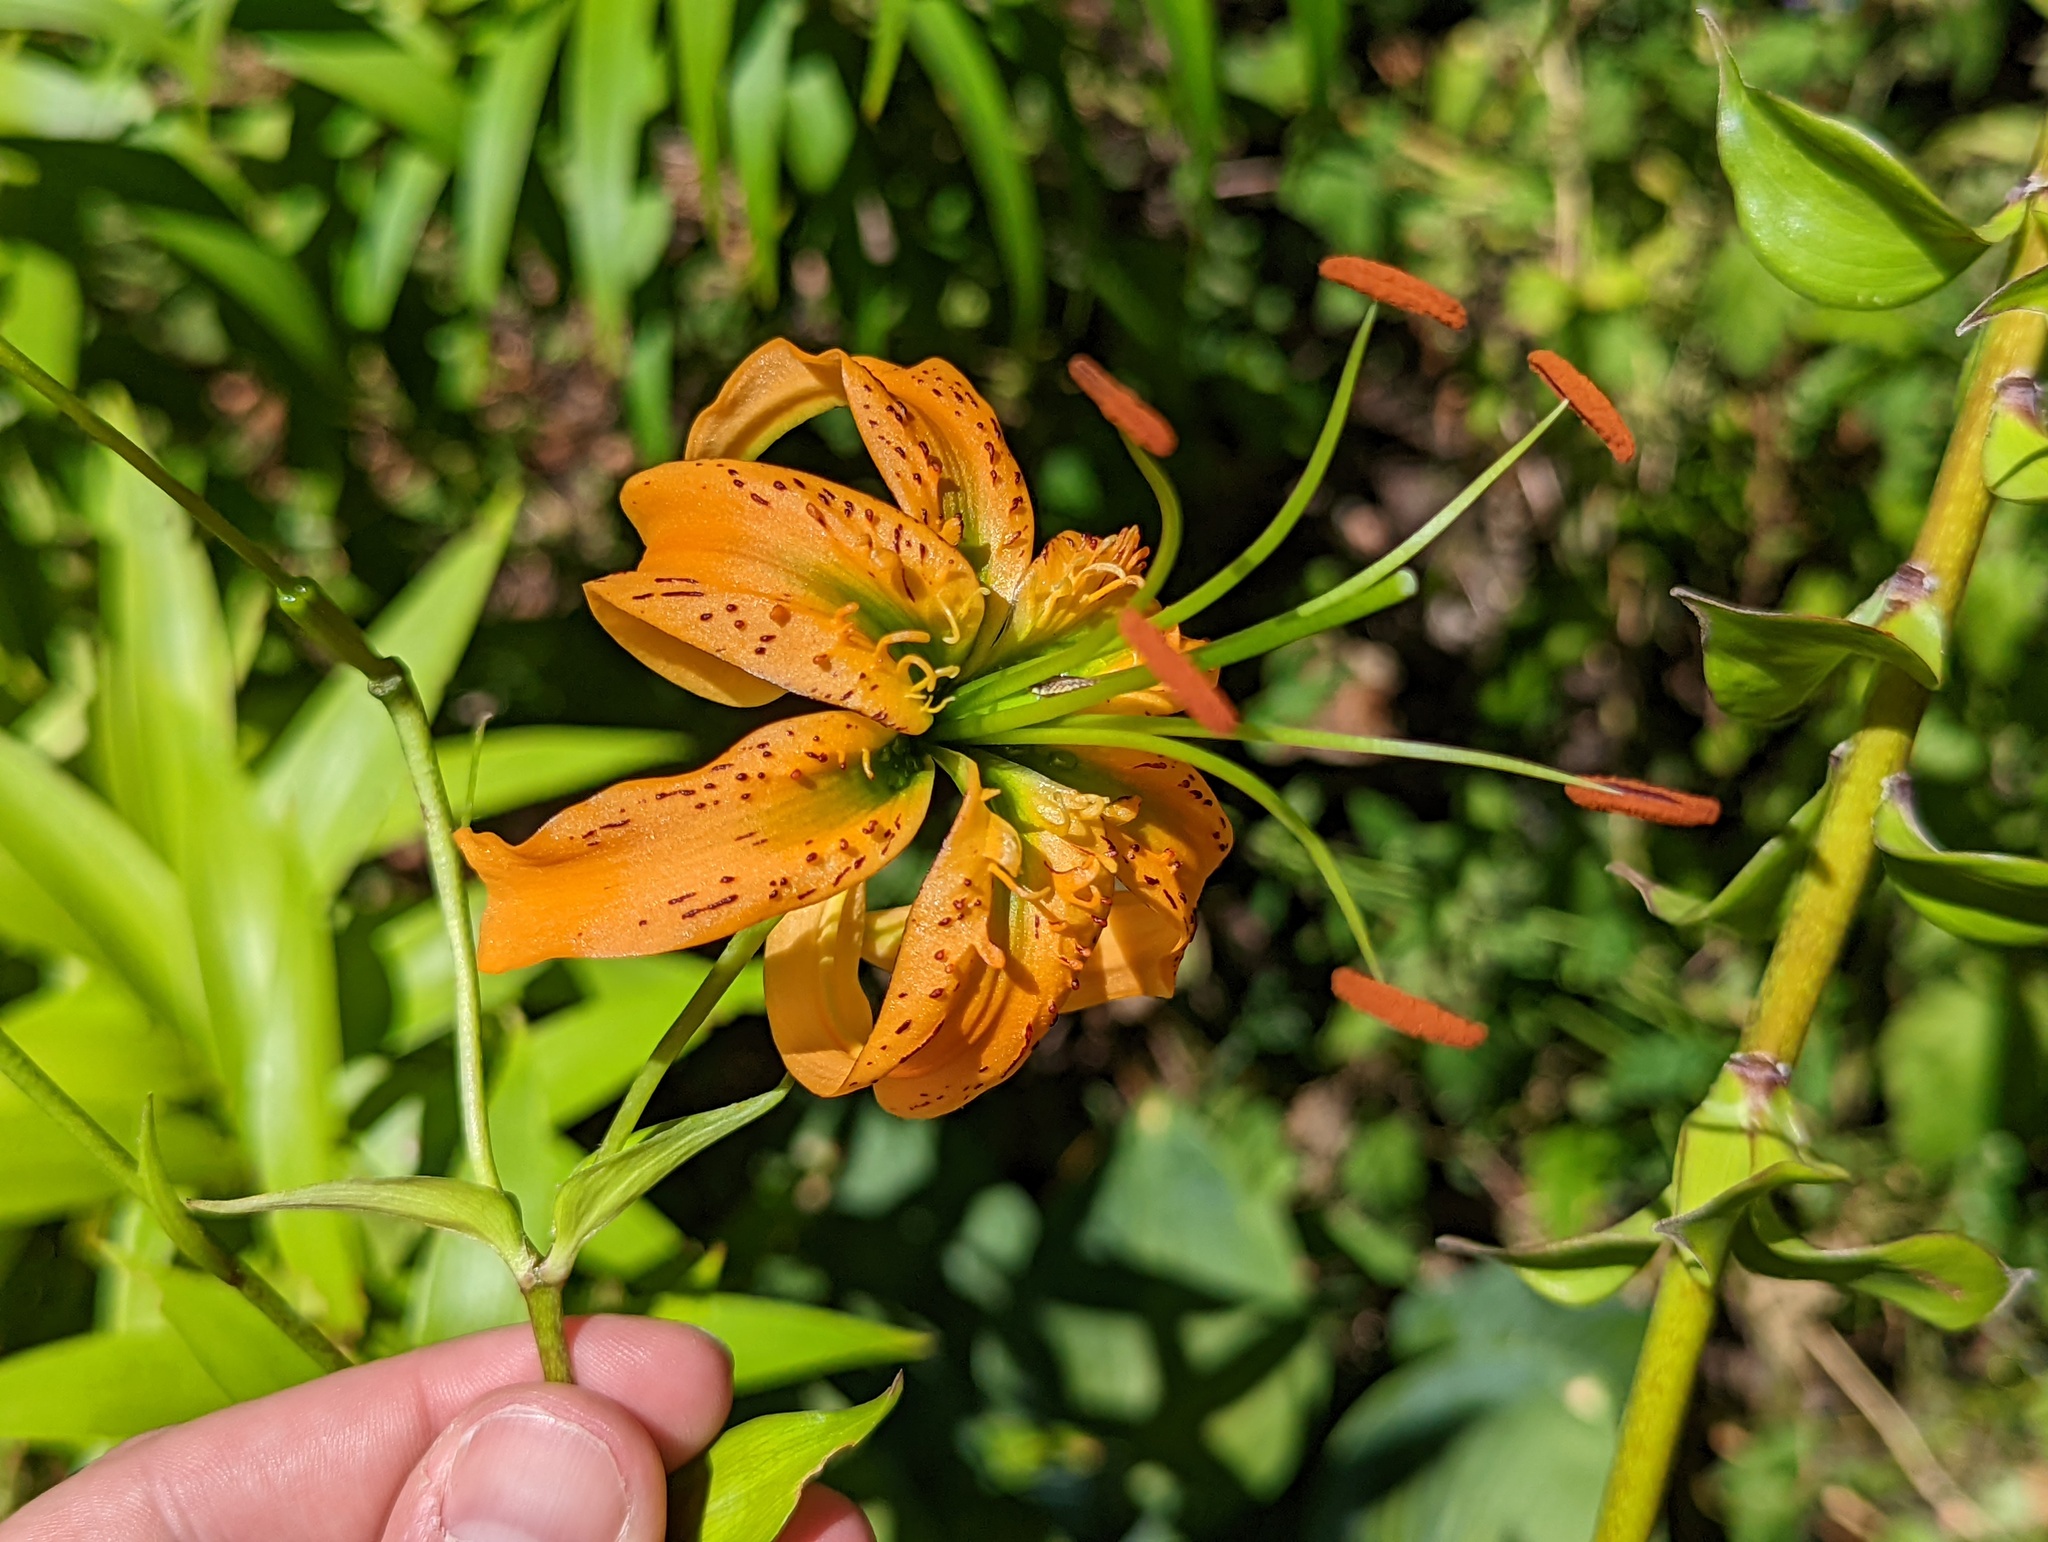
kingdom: Plantae
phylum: Tracheophyta
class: Liliopsida
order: Liliales
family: Liliaceae
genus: Lilium
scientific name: Lilium lancifolium
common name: Tiger lily
